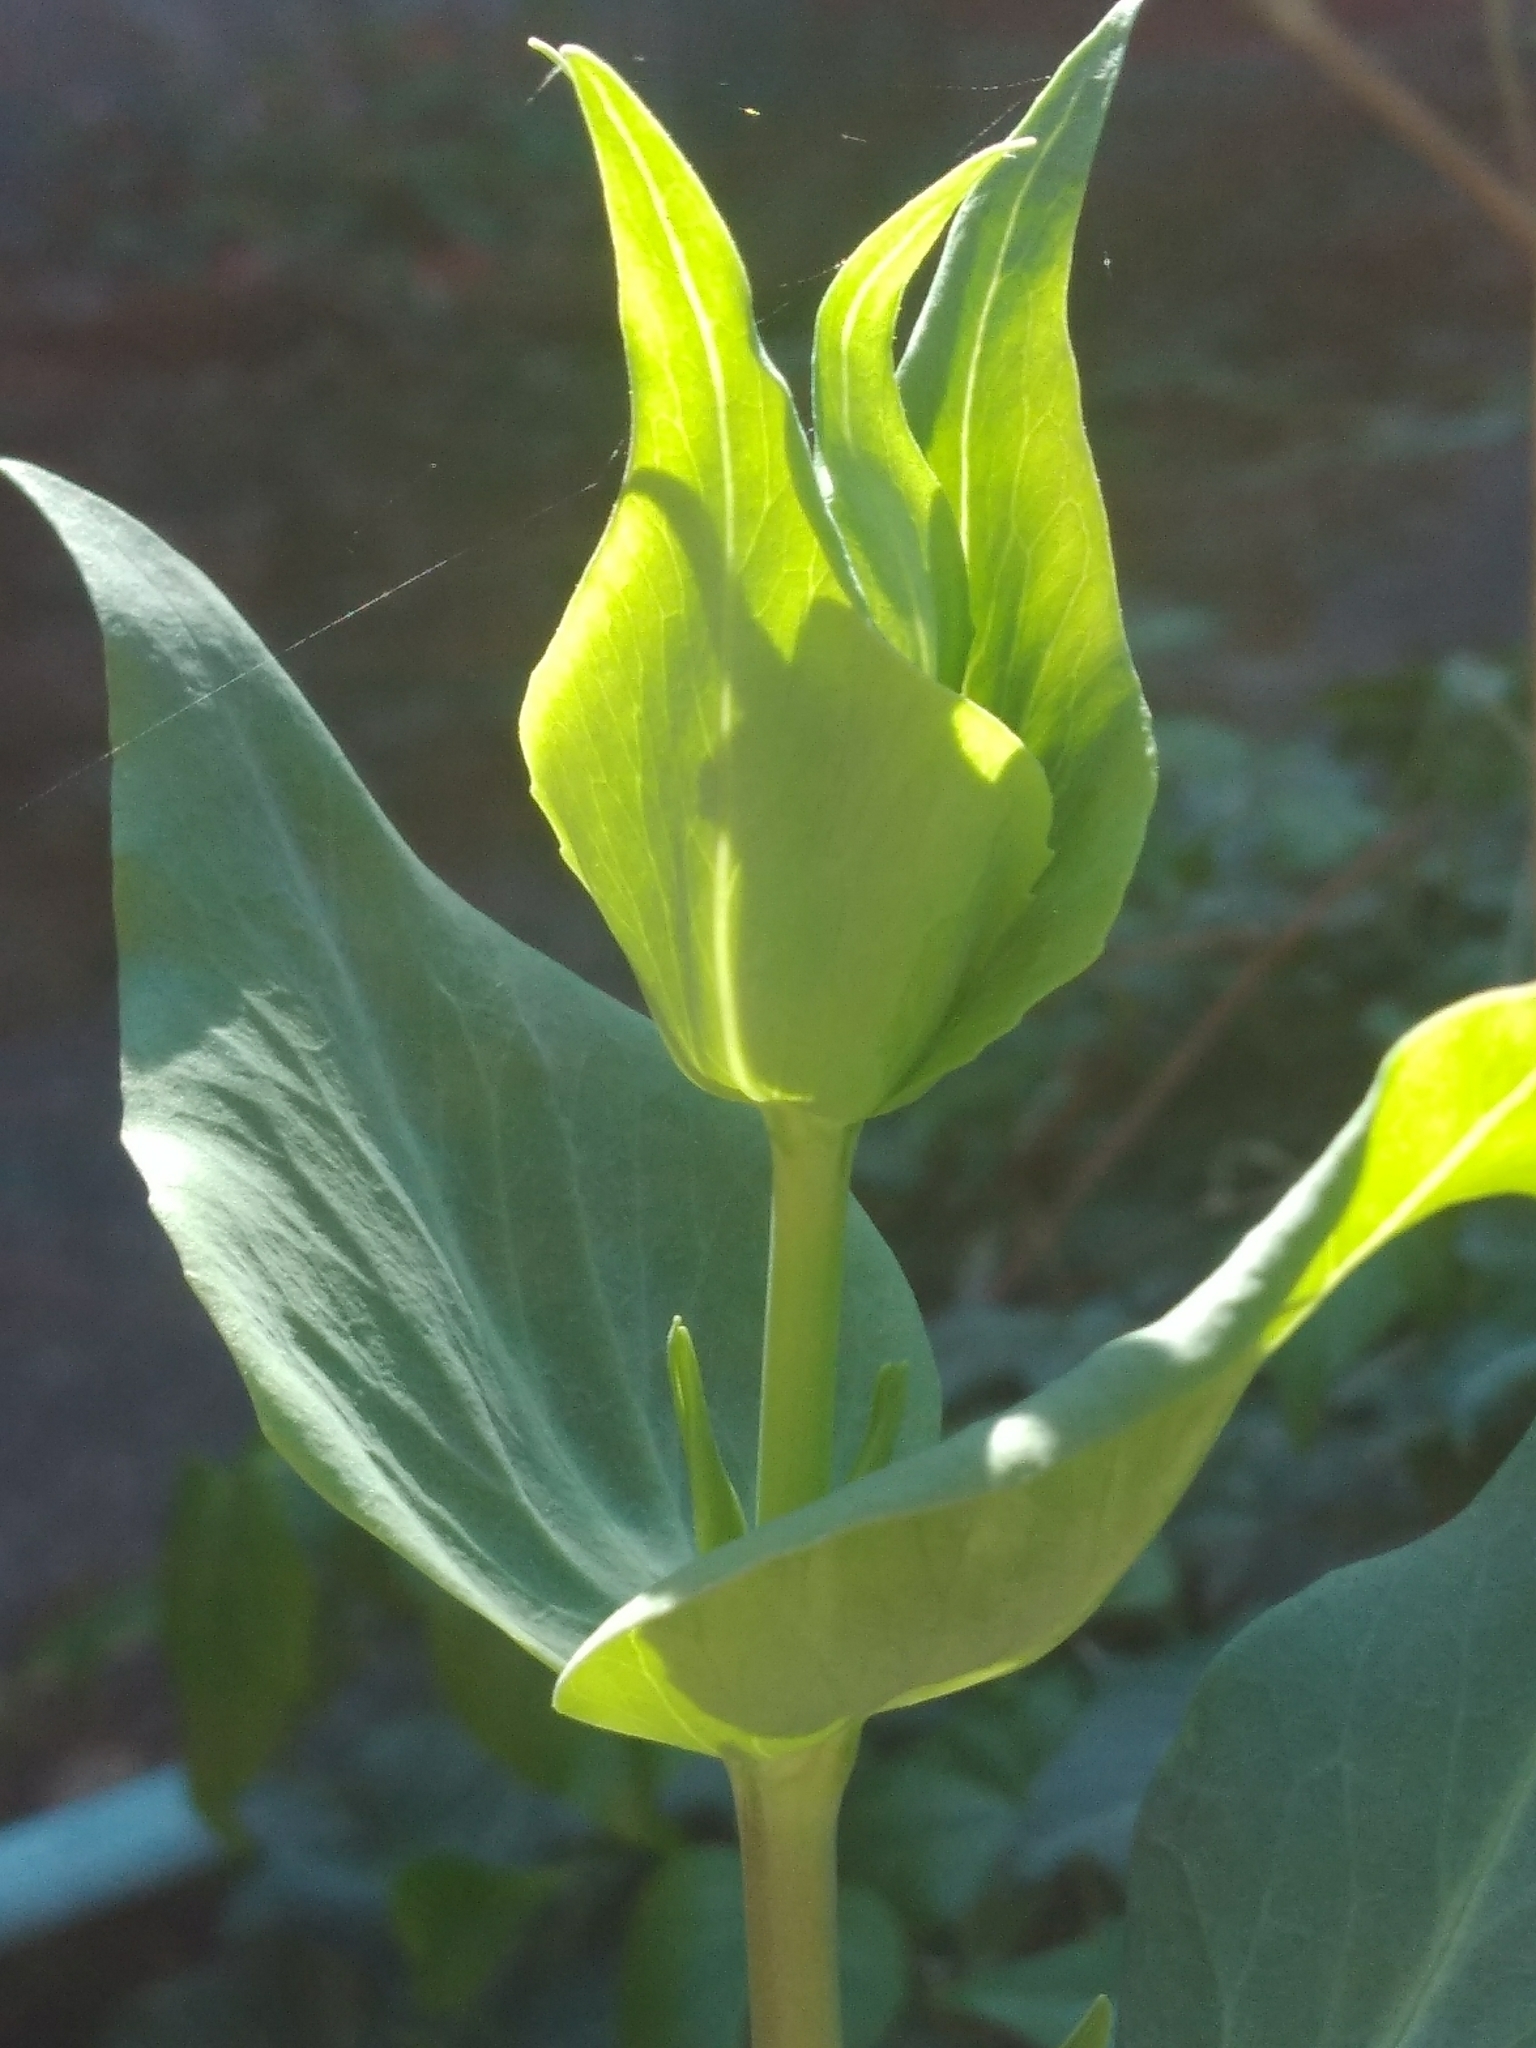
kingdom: Plantae
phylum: Tracheophyta
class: Magnoliopsida
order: Dipsacales
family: Caprifoliaceae
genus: Centranthus
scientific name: Centranthus ruber
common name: Red valerian
